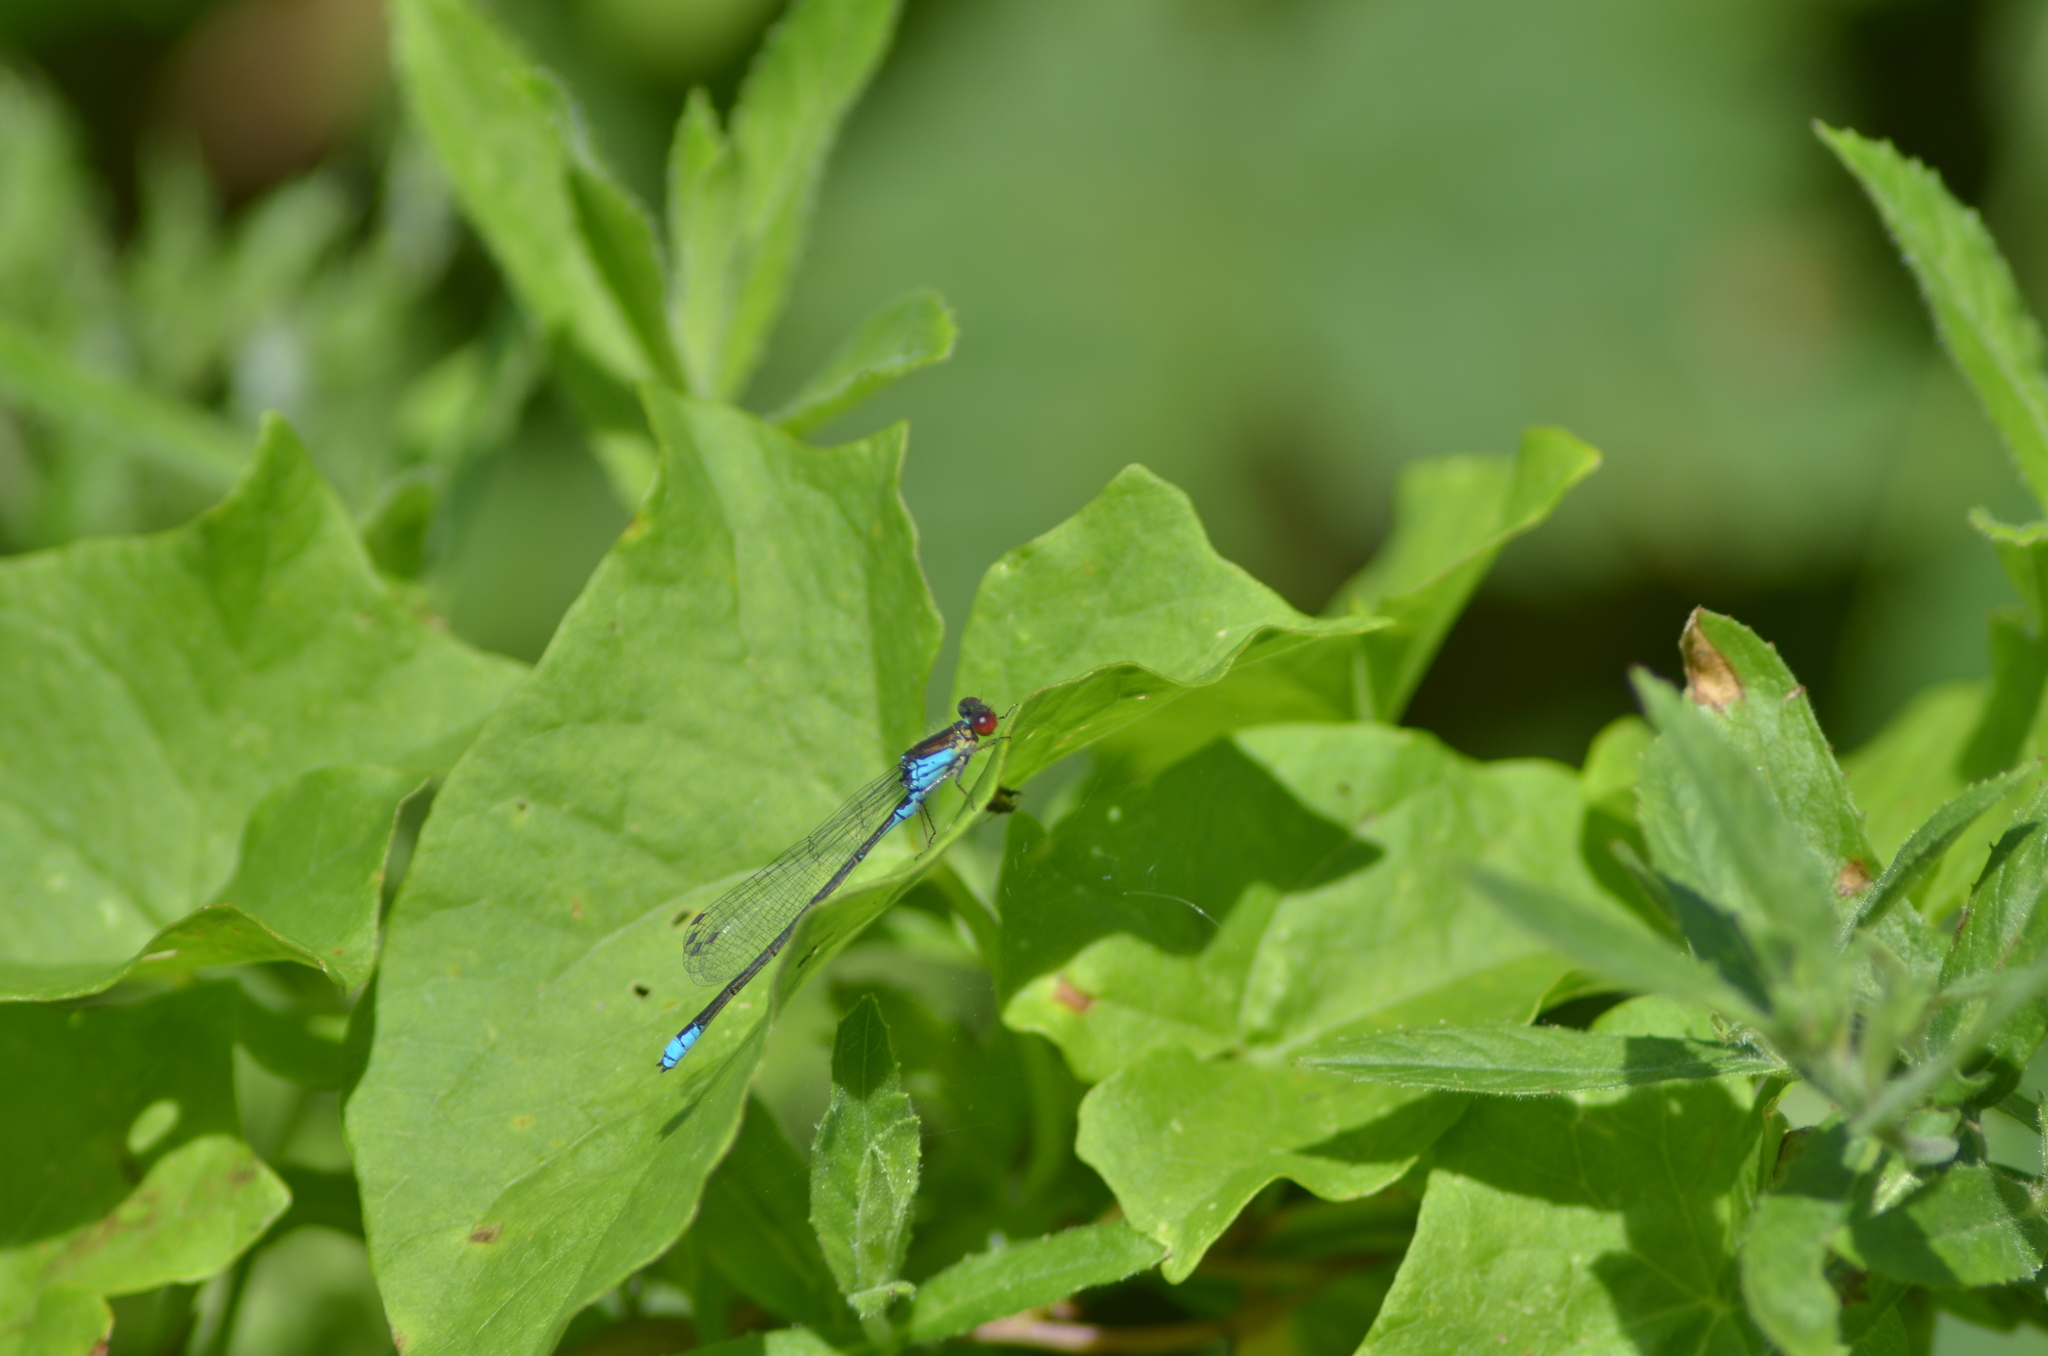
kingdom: Animalia
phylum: Arthropoda
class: Insecta
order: Odonata
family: Coenagrionidae
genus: Erythromma
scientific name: Erythromma viridulum
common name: Small red-eyed damselfly
